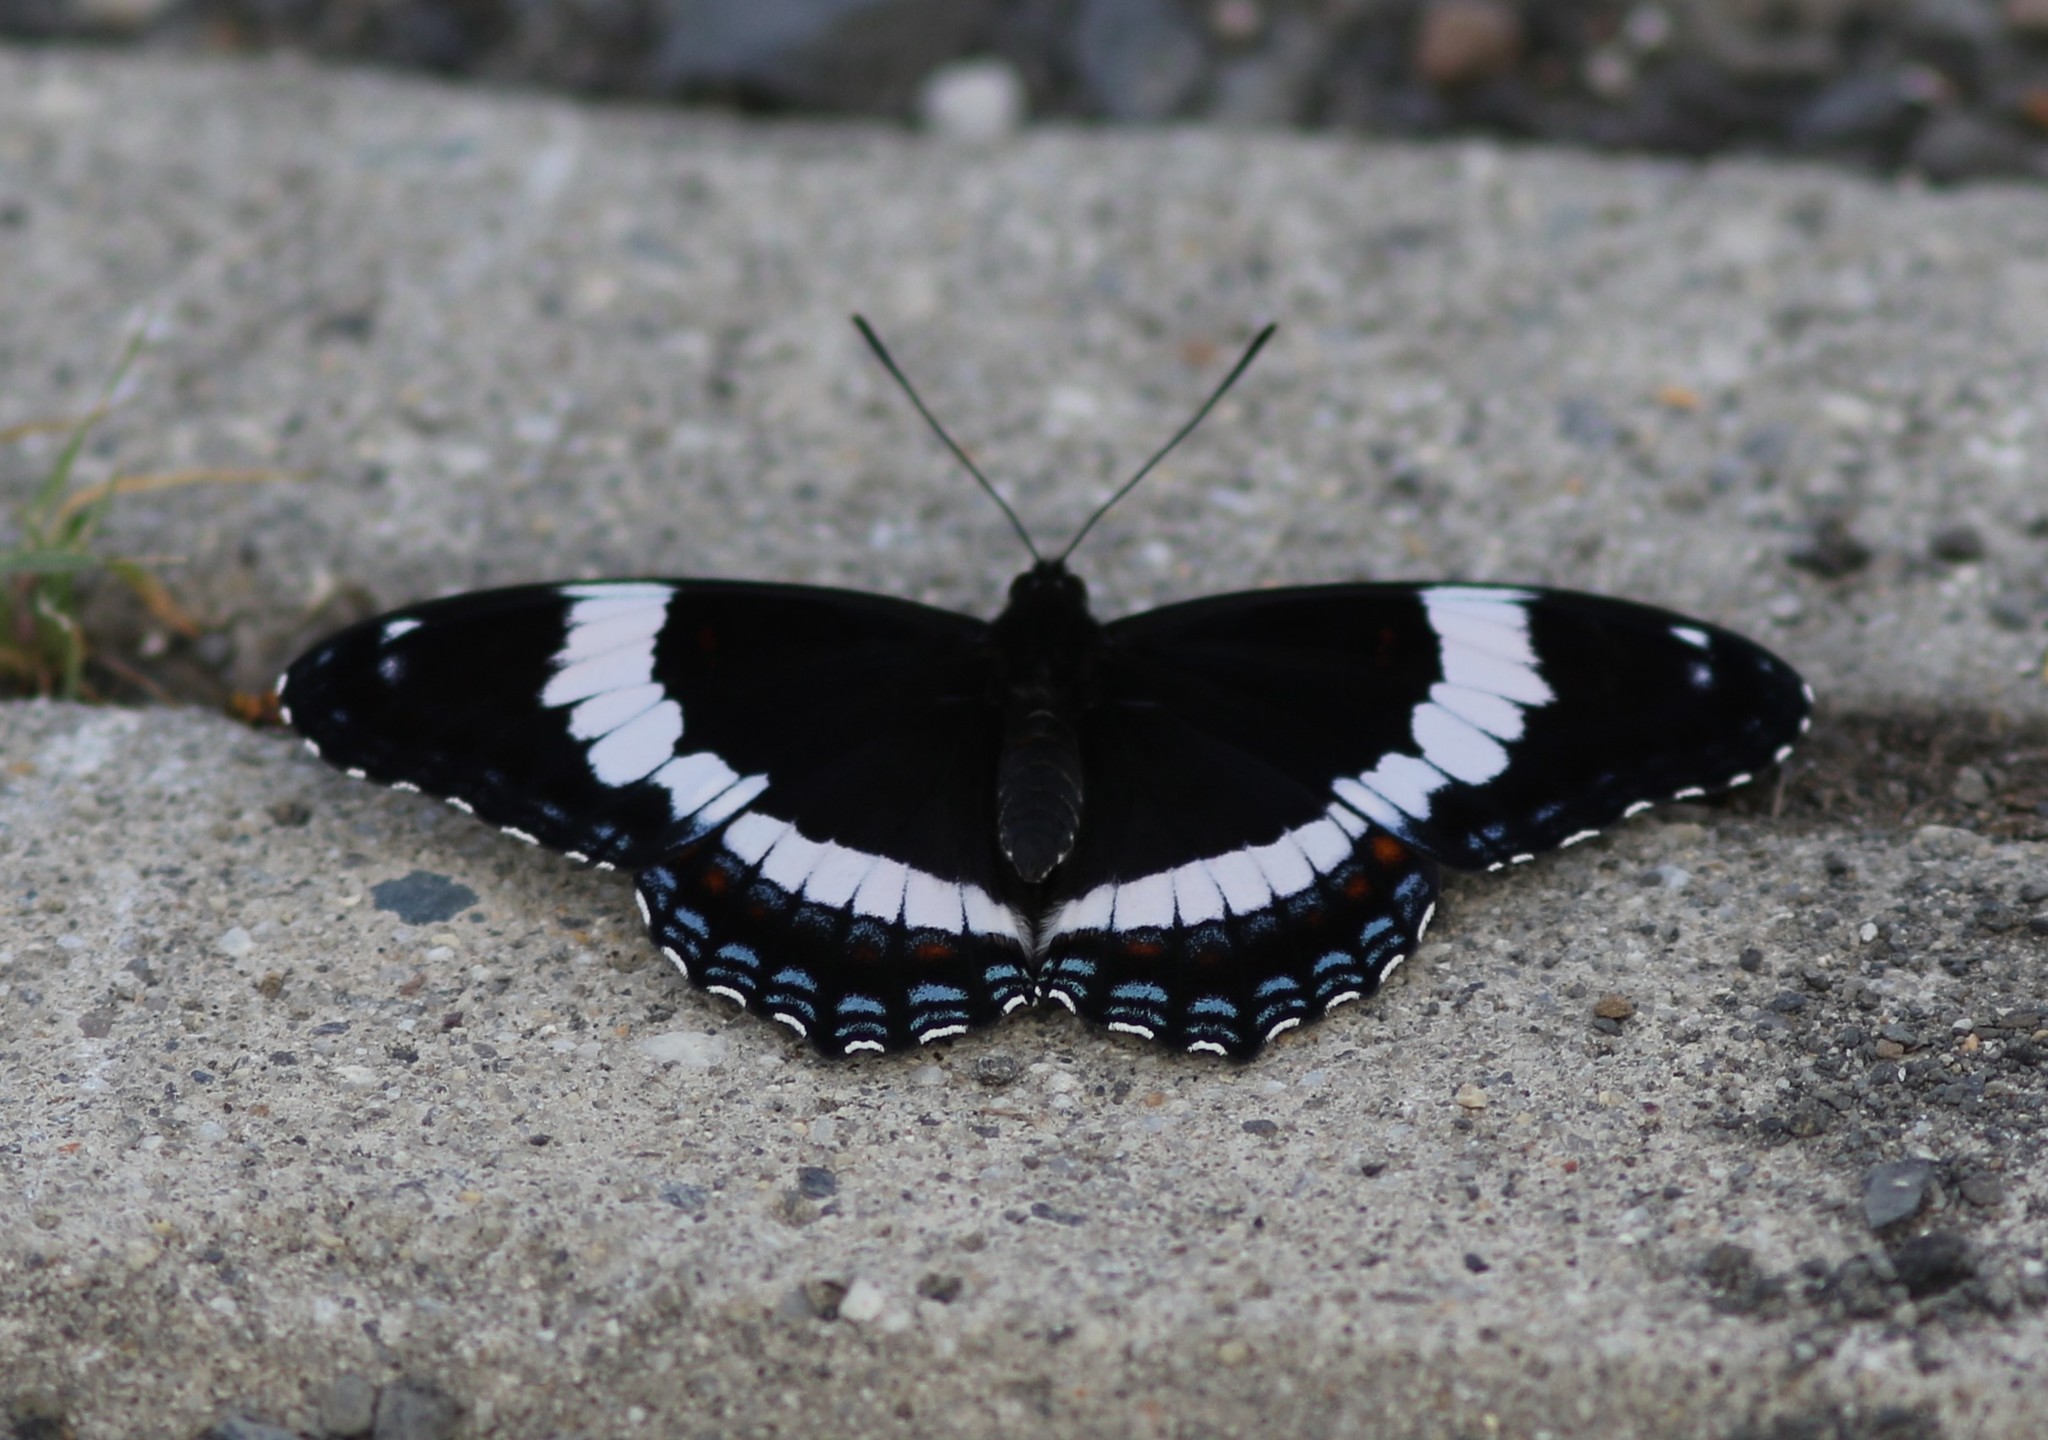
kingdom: Animalia
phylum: Arthropoda
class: Insecta
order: Lepidoptera
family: Nymphalidae
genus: Limenitis
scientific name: Limenitis arthemis
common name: Red-spotted admiral
